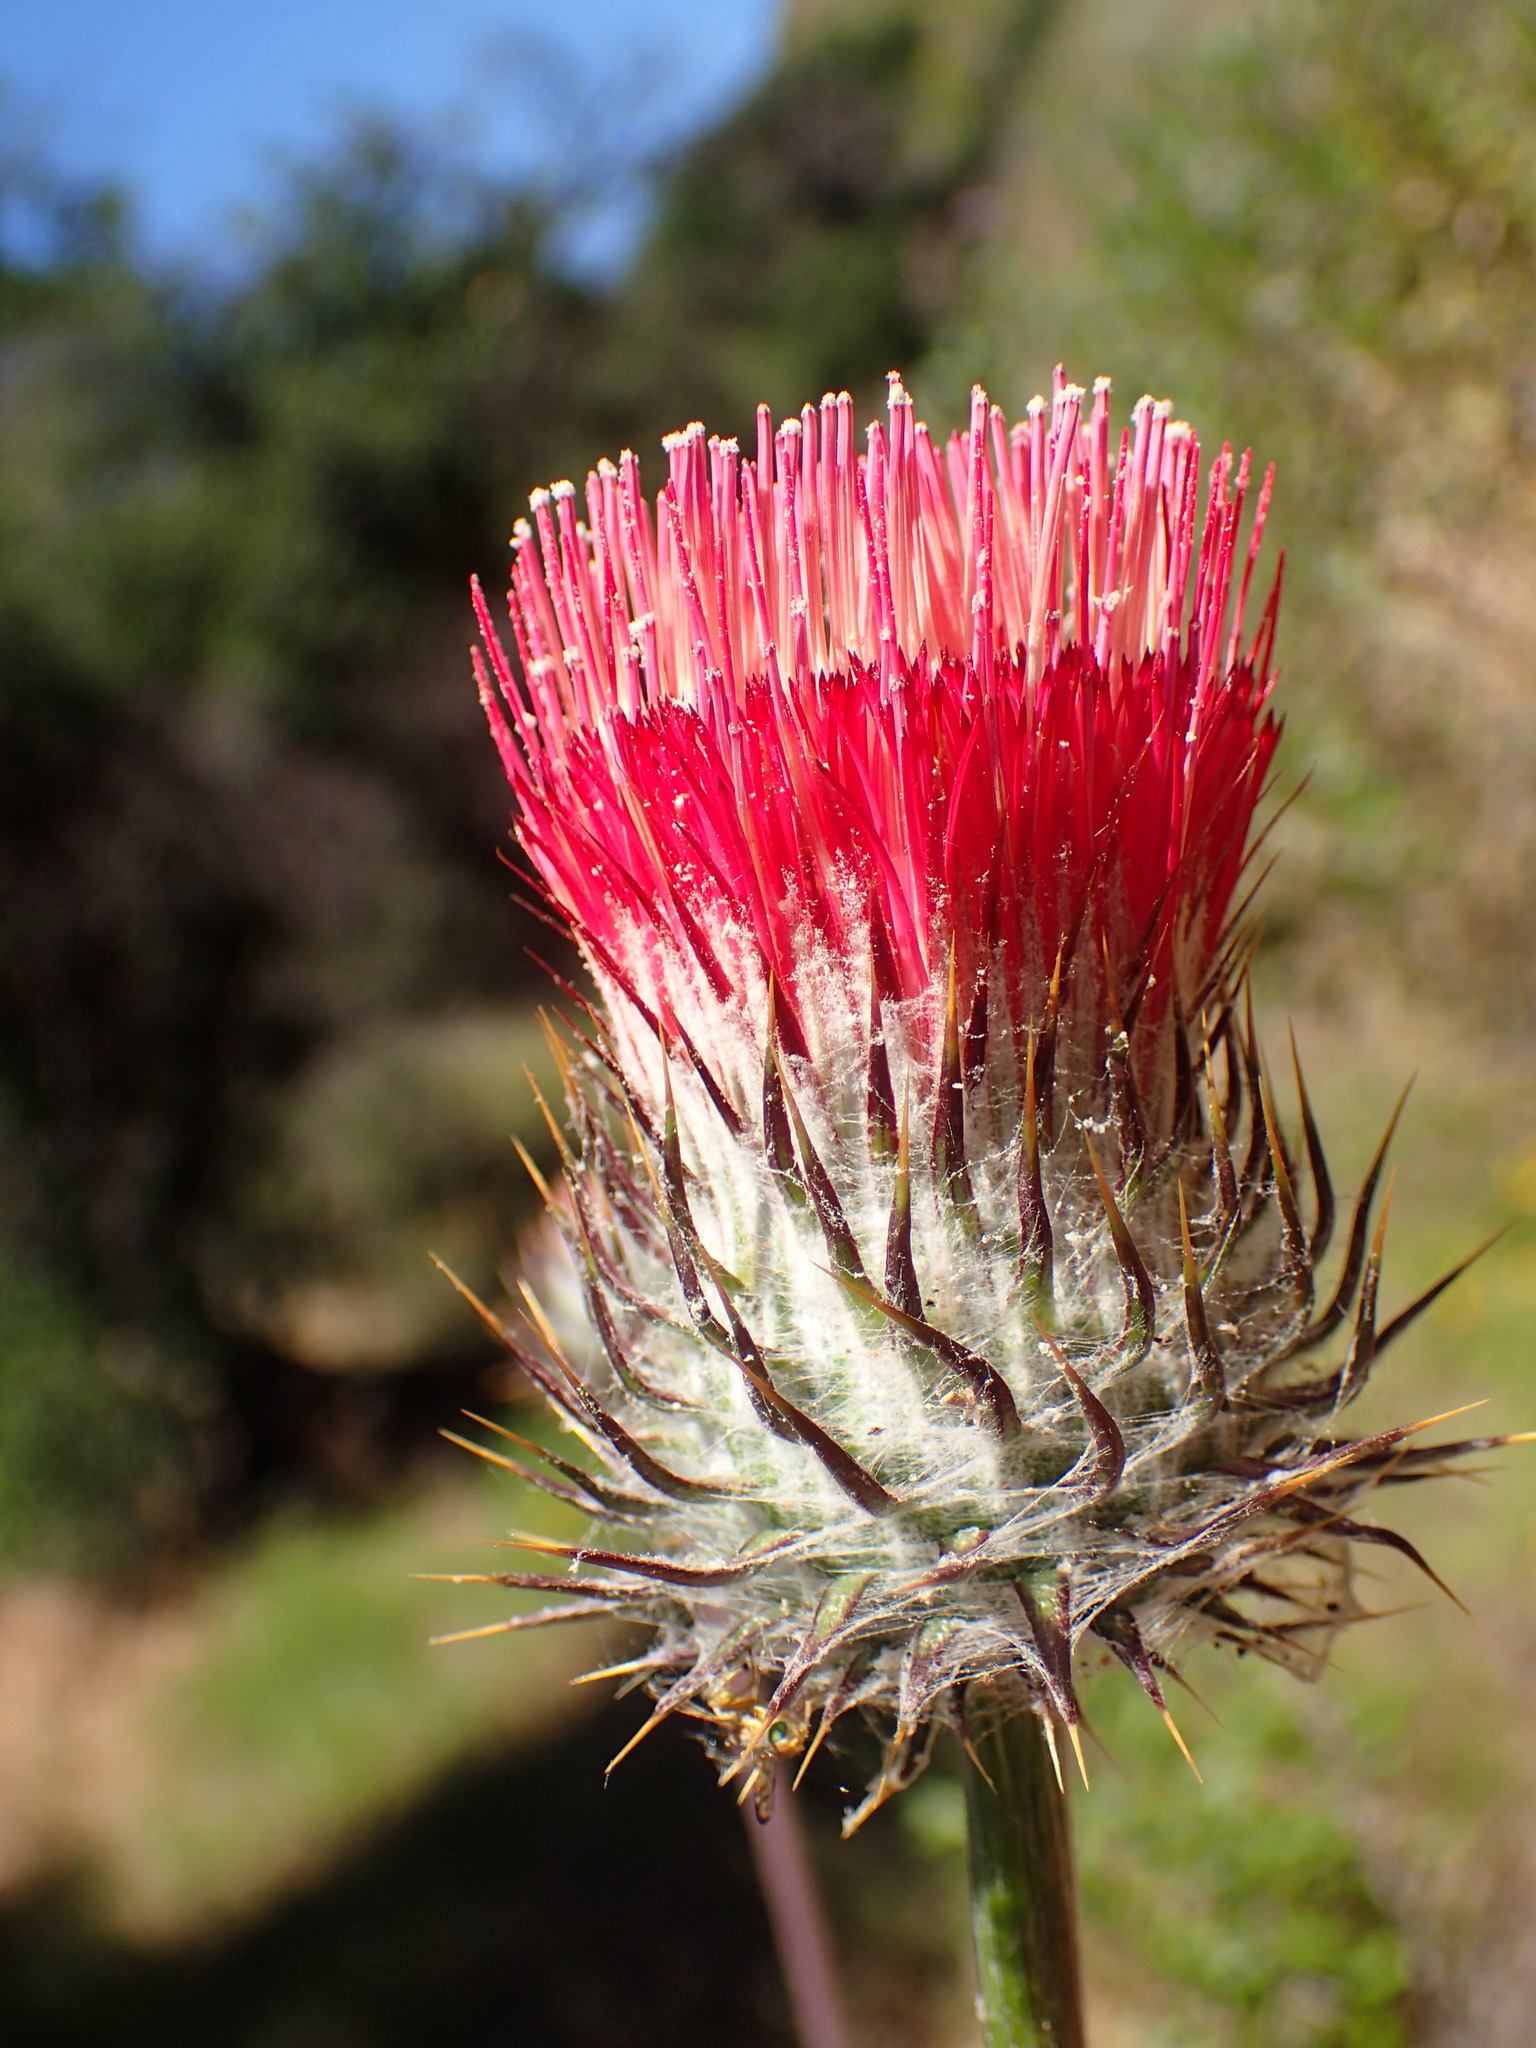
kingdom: Plantae
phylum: Tracheophyta
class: Magnoliopsida
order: Asterales
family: Asteraceae
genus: Cirsium
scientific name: Cirsium occidentale
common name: Western thistle
